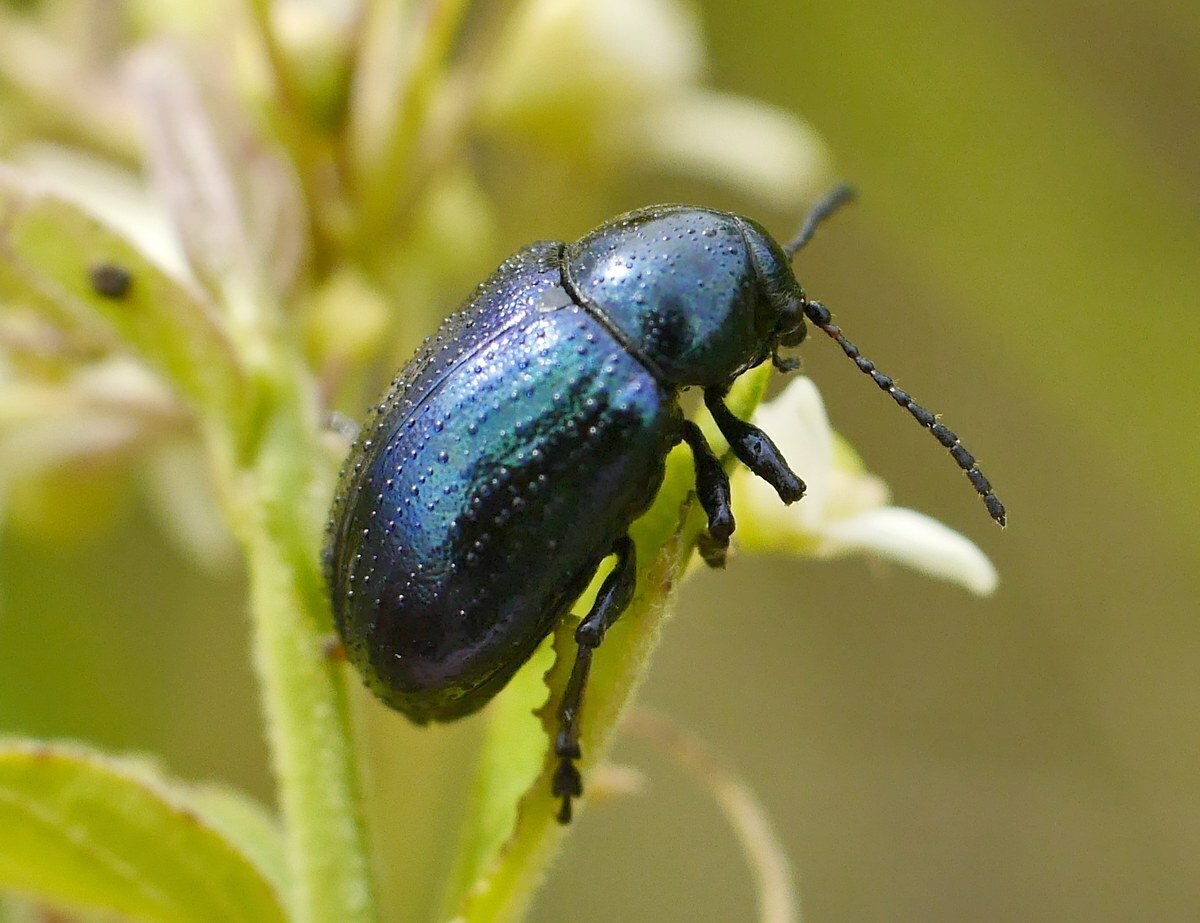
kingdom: Animalia
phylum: Arthropoda
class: Insecta
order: Coleoptera
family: Chrysomelidae
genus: Chrysochus
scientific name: Chrysochus asclepiadeus
